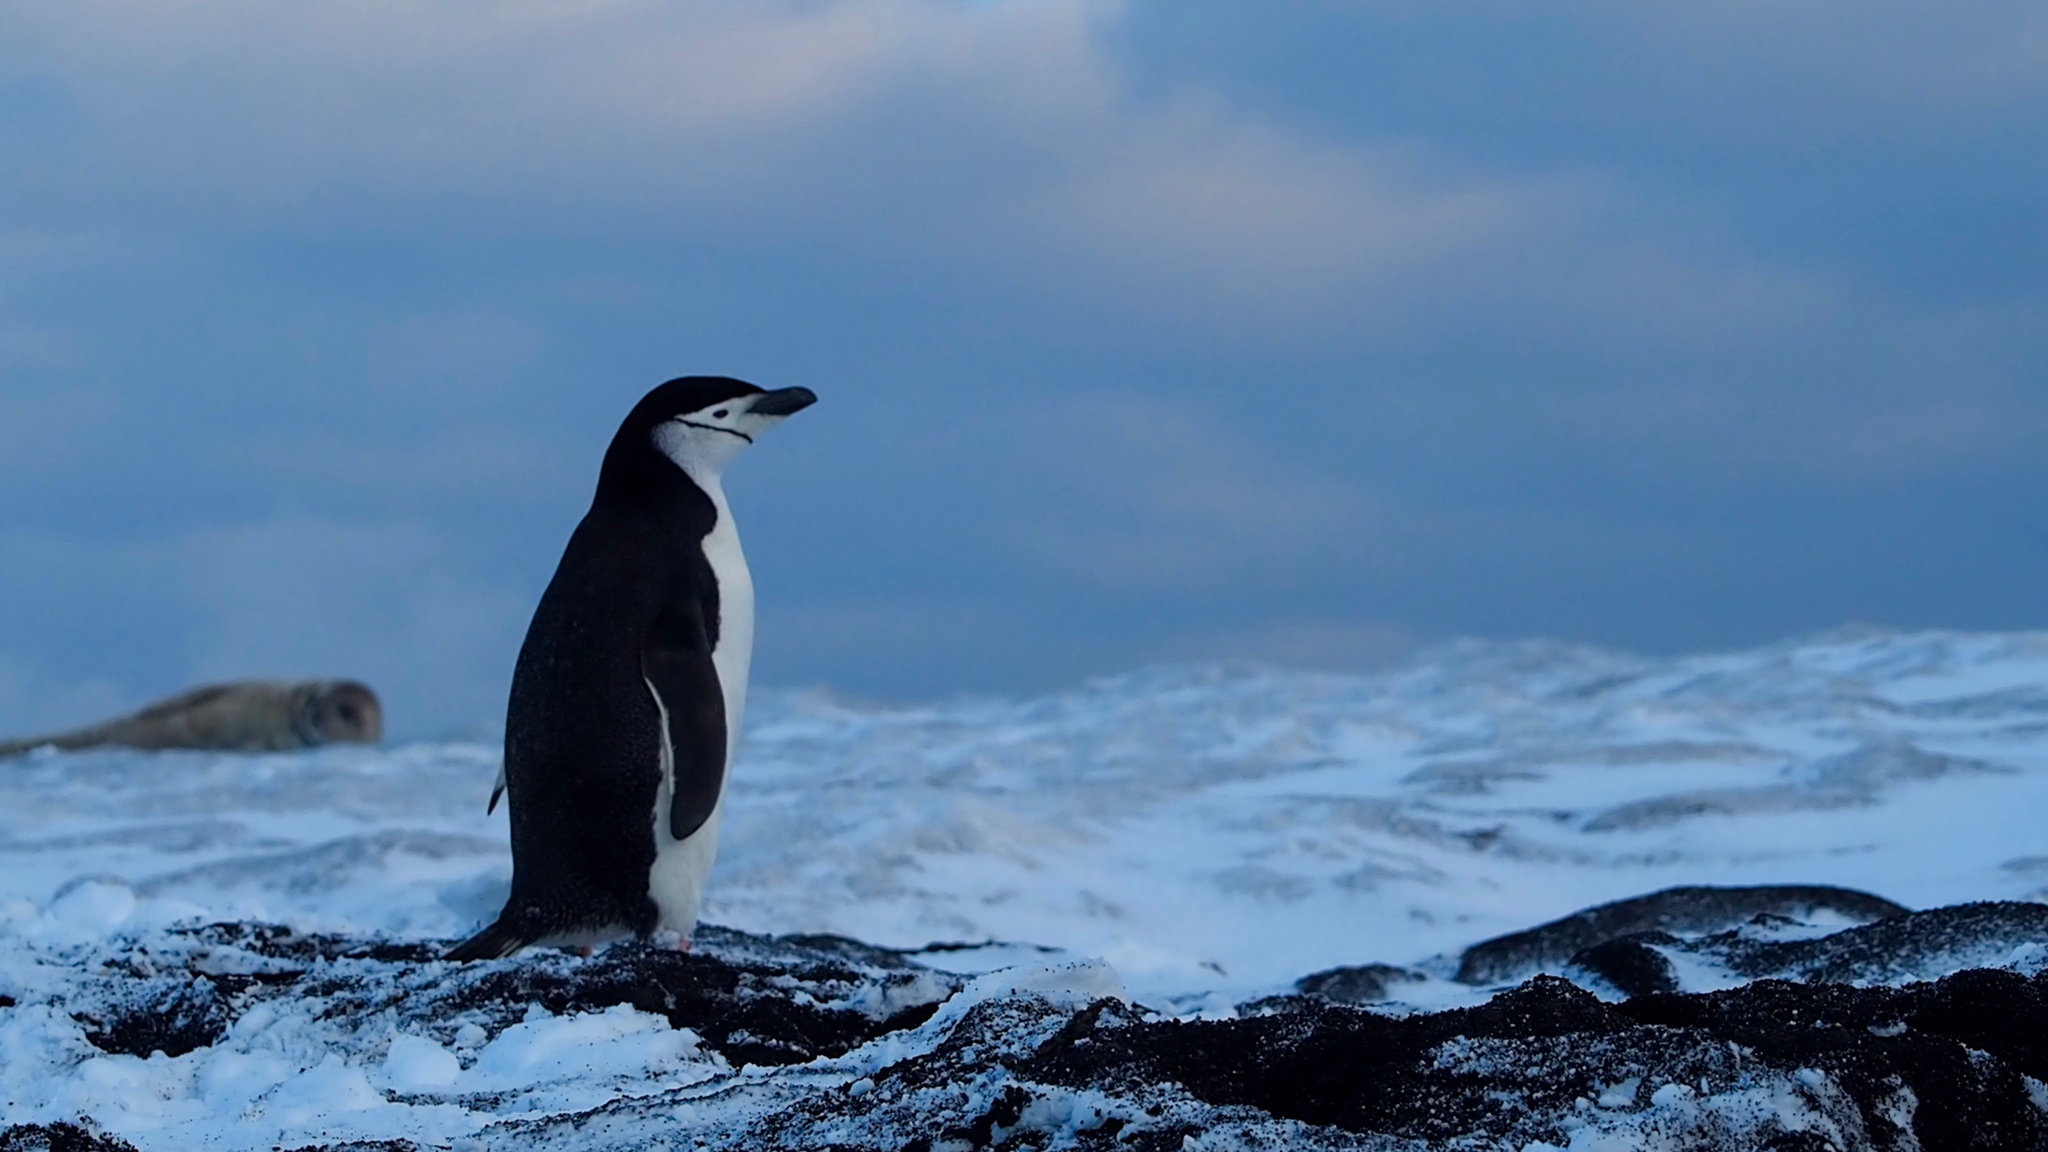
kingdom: Animalia
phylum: Chordata
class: Aves
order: Sphenisciformes
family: Spheniscidae
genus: Pygoscelis
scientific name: Pygoscelis antarcticus
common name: Chinstrap penguin
